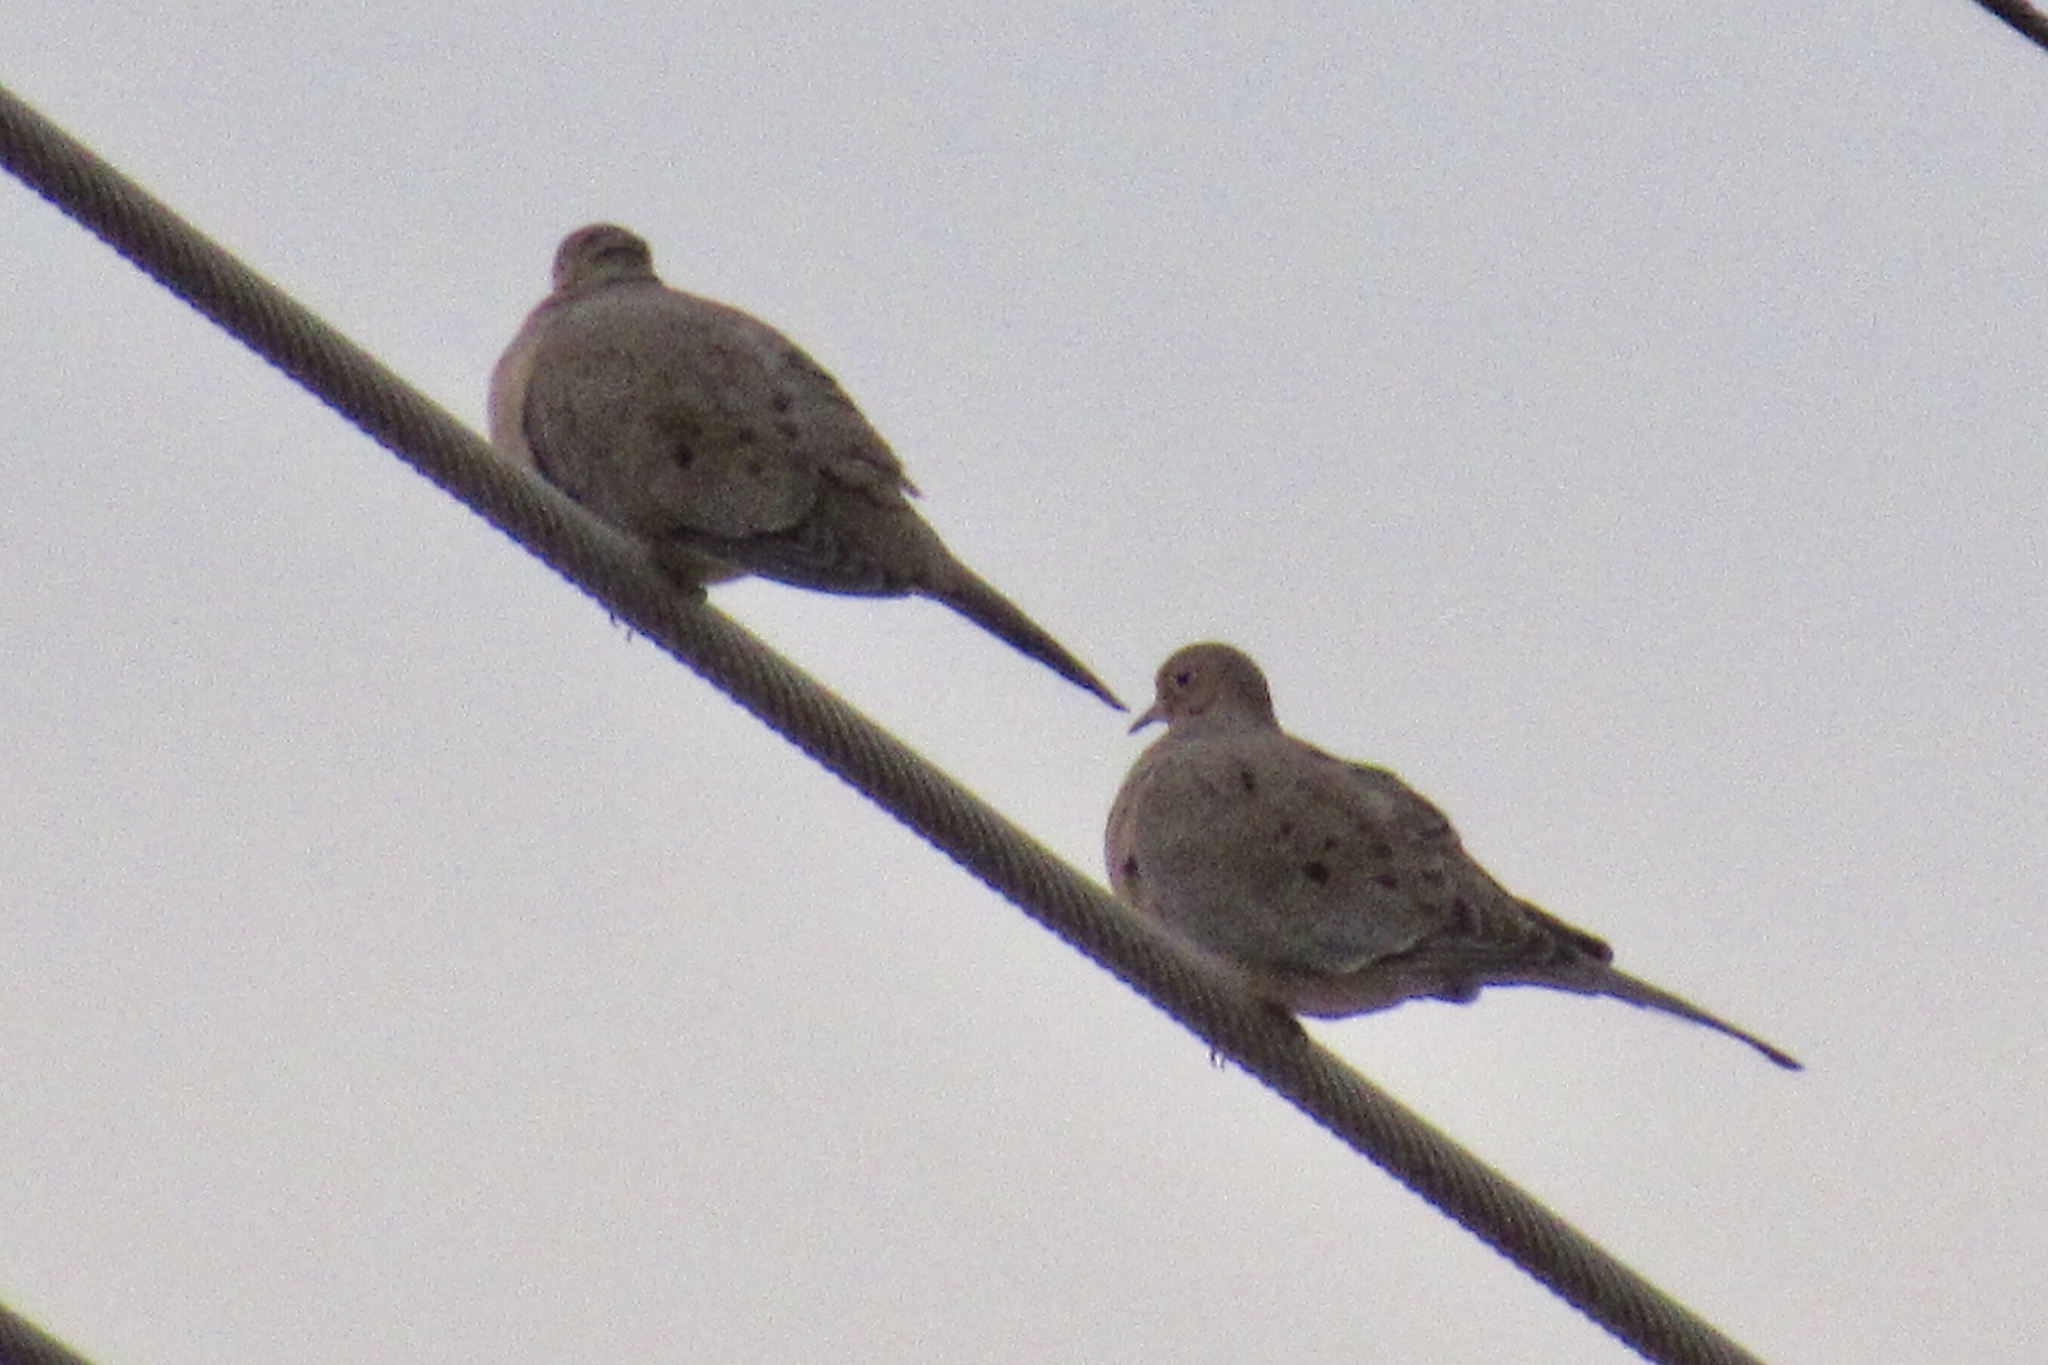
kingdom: Animalia
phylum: Chordata
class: Aves
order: Columbiformes
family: Columbidae
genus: Zenaida
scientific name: Zenaida macroura
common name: Mourning dove
